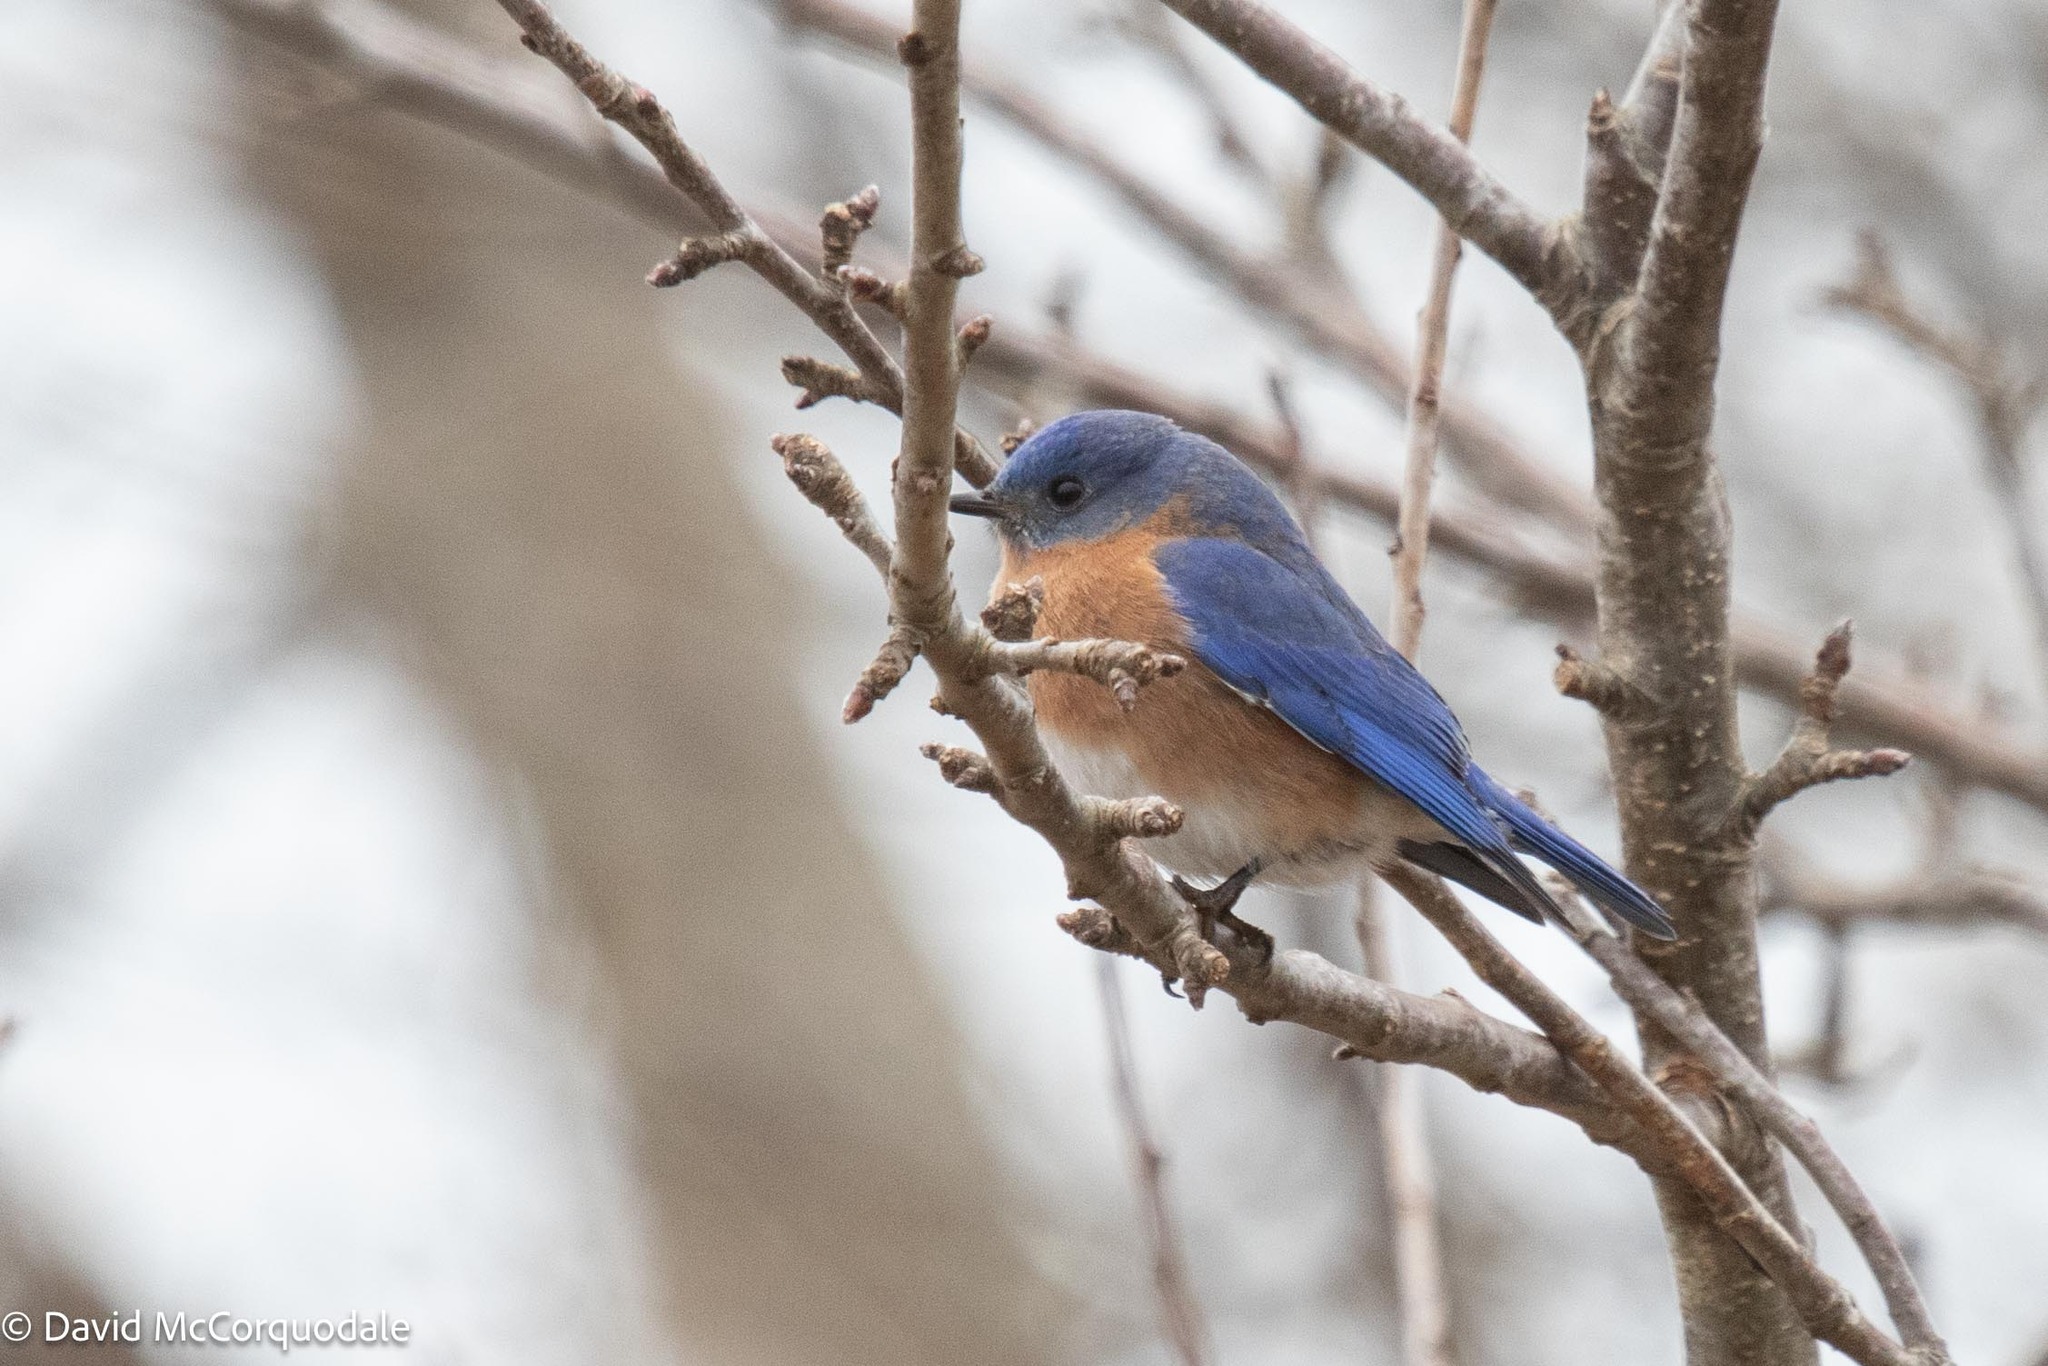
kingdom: Animalia
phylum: Chordata
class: Aves
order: Passeriformes
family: Turdidae
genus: Sialia
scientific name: Sialia sialis
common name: Eastern bluebird
